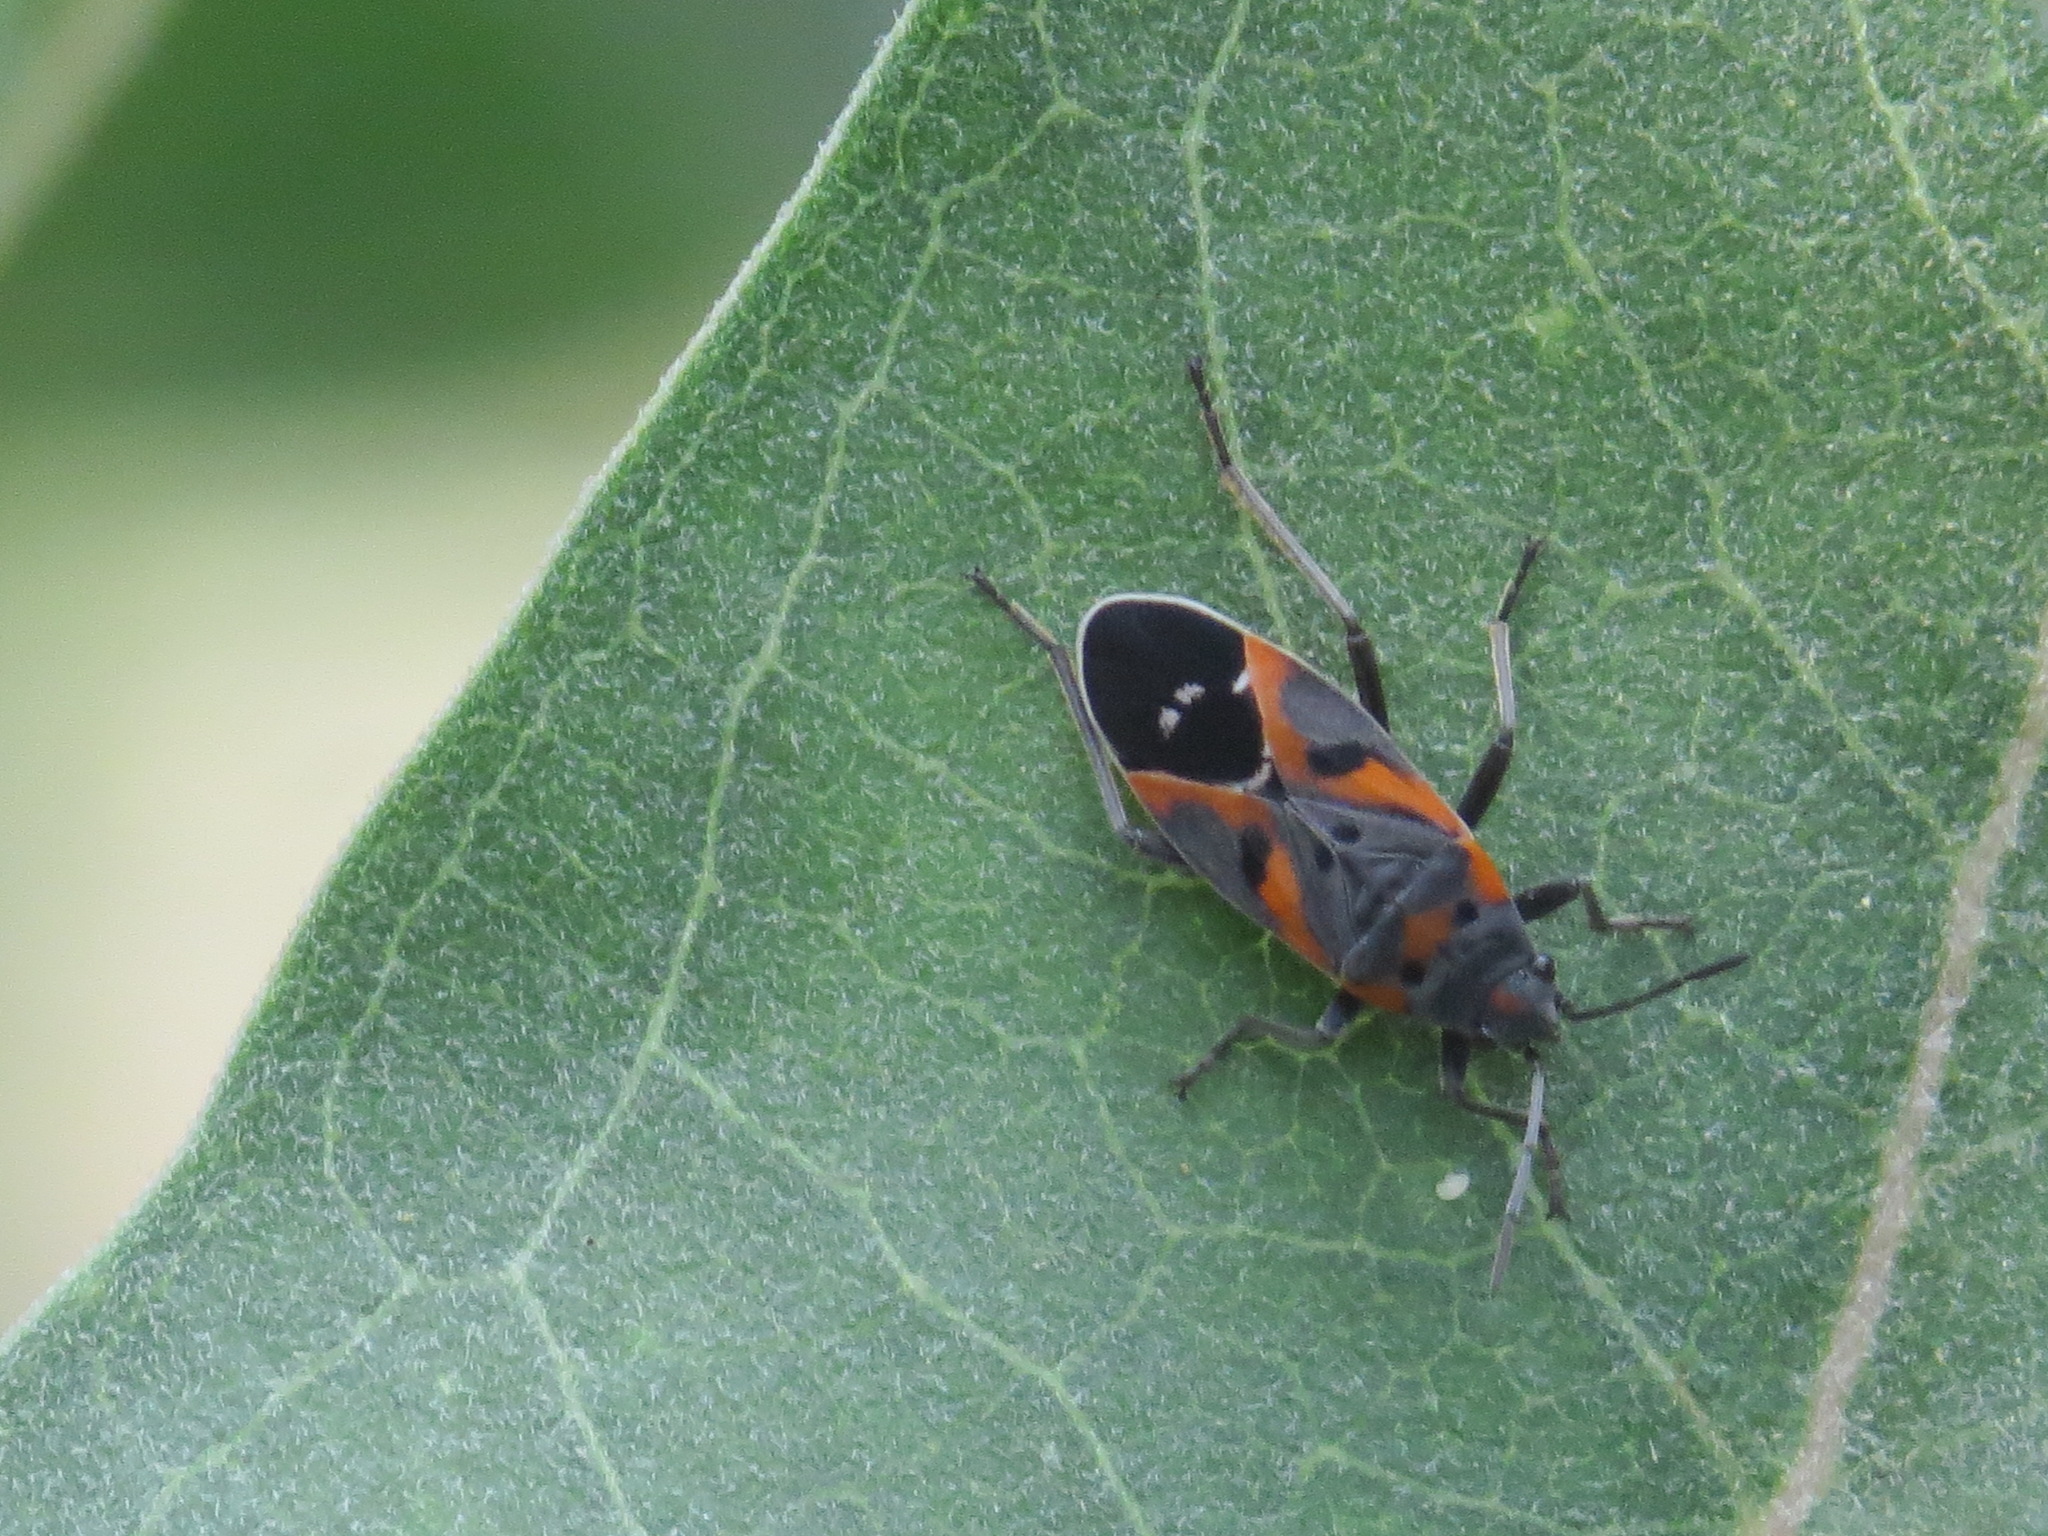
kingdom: Animalia
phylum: Arthropoda
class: Insecta
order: Hemiptera
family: Lygaeidae
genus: Lygaeus
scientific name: Lygaeus kalmii
